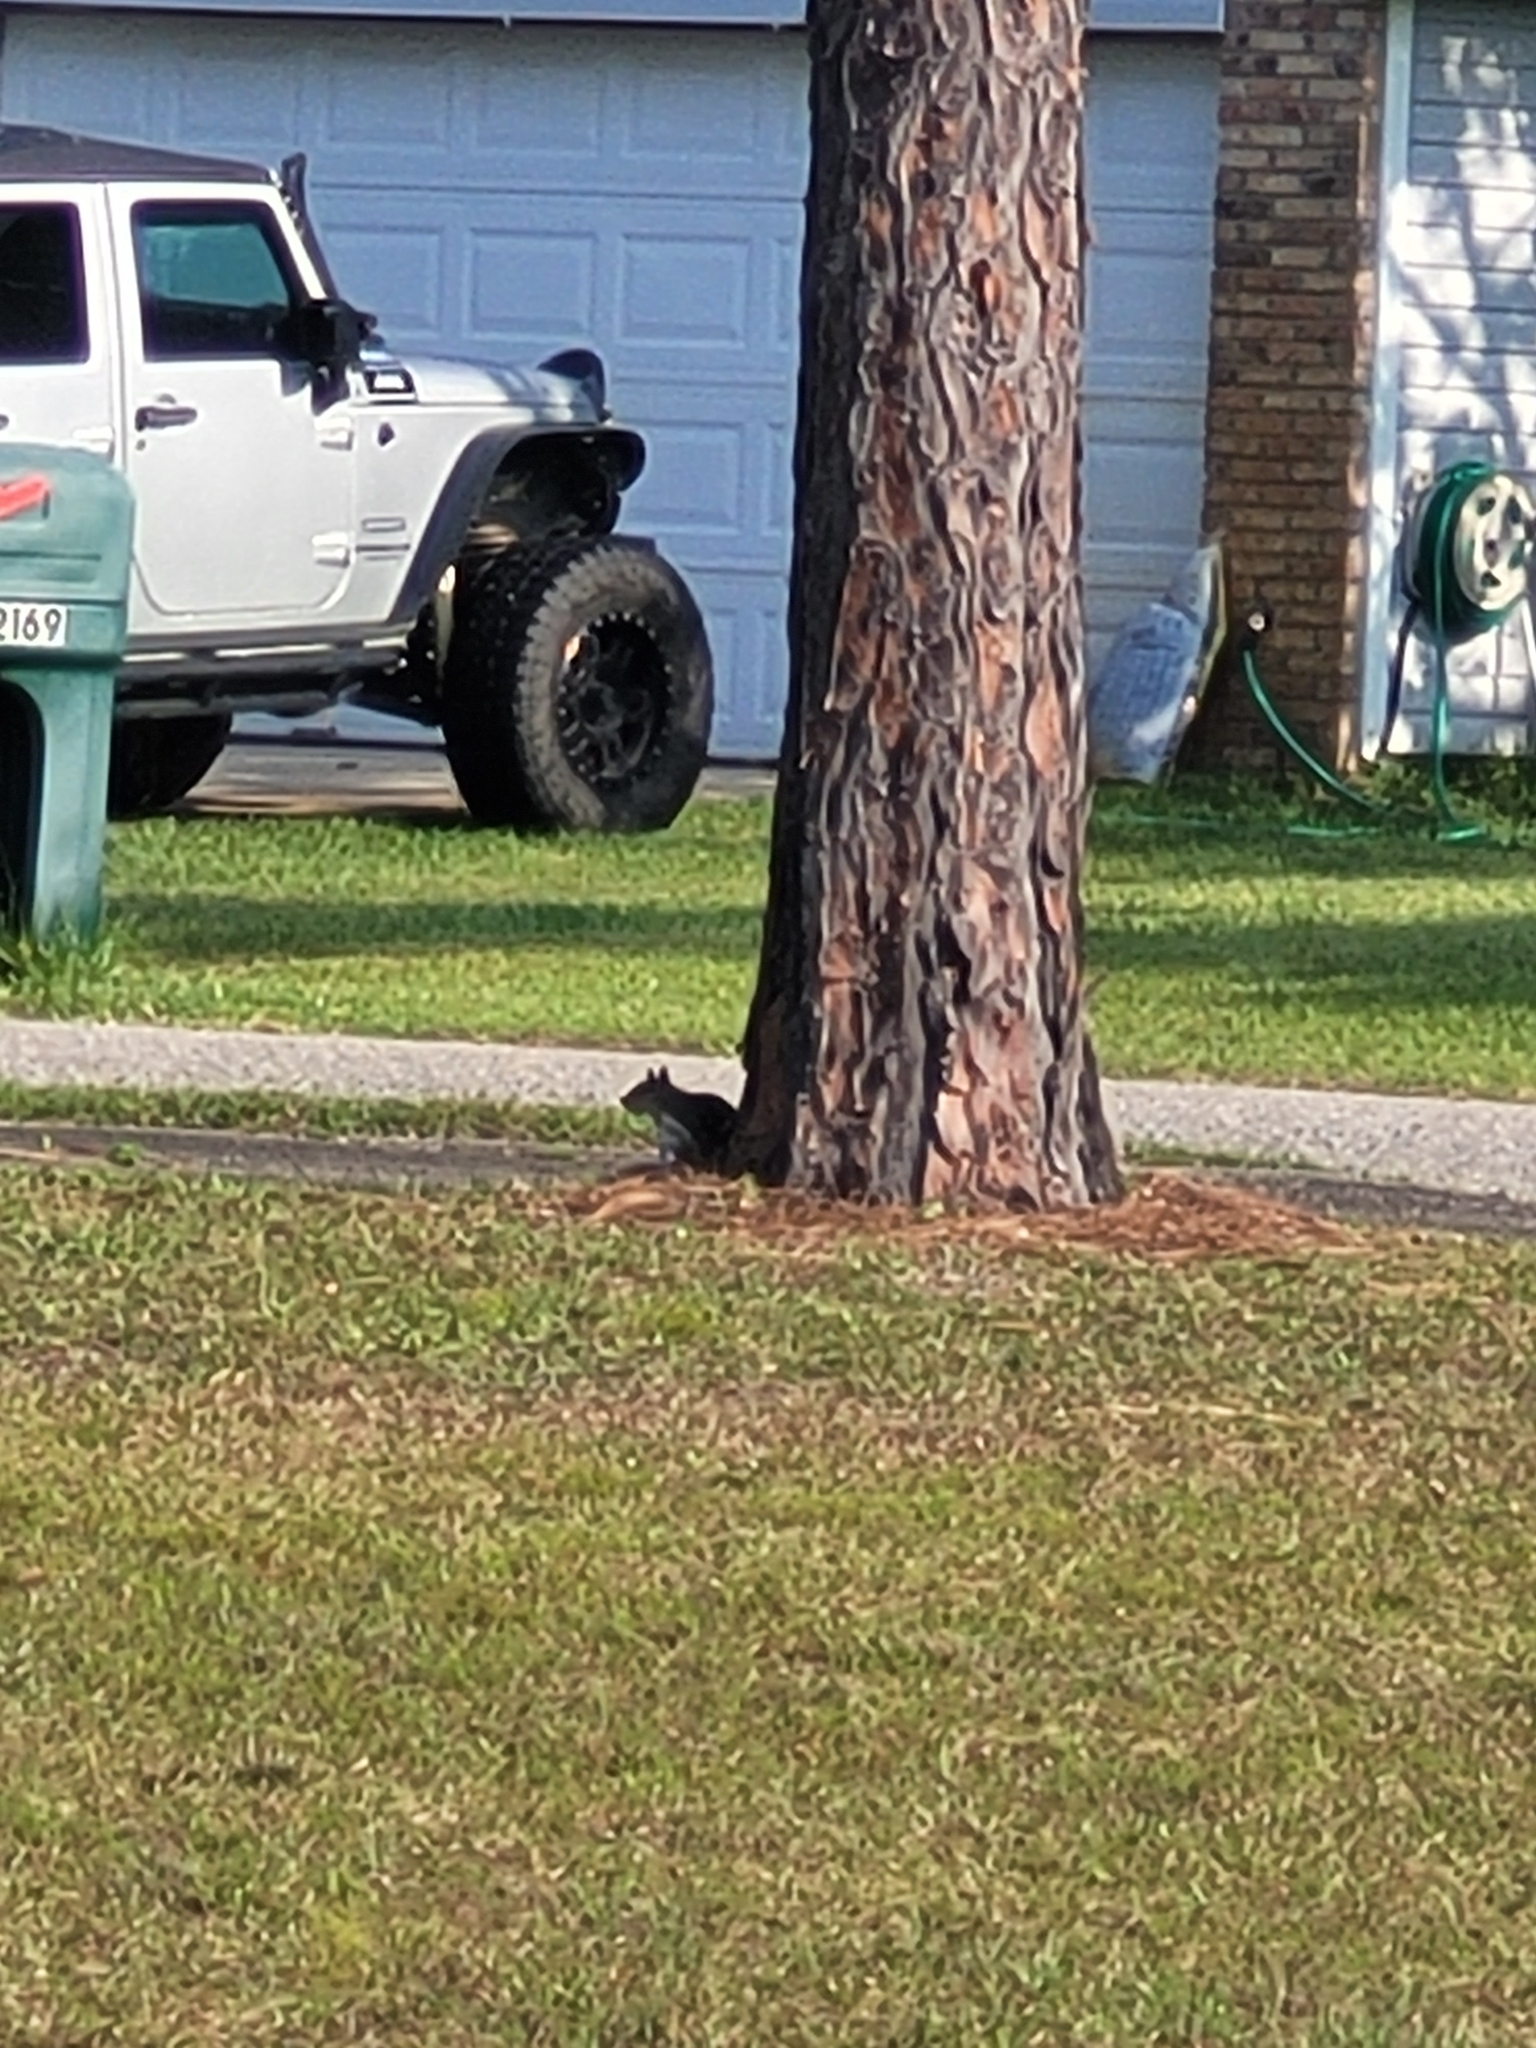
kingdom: Animalia
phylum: Chordata
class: Mammalia
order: Rodentia
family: Sciuridae
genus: Sciurus
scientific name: Sciurus carolinensis
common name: Eastern gray squirrel
